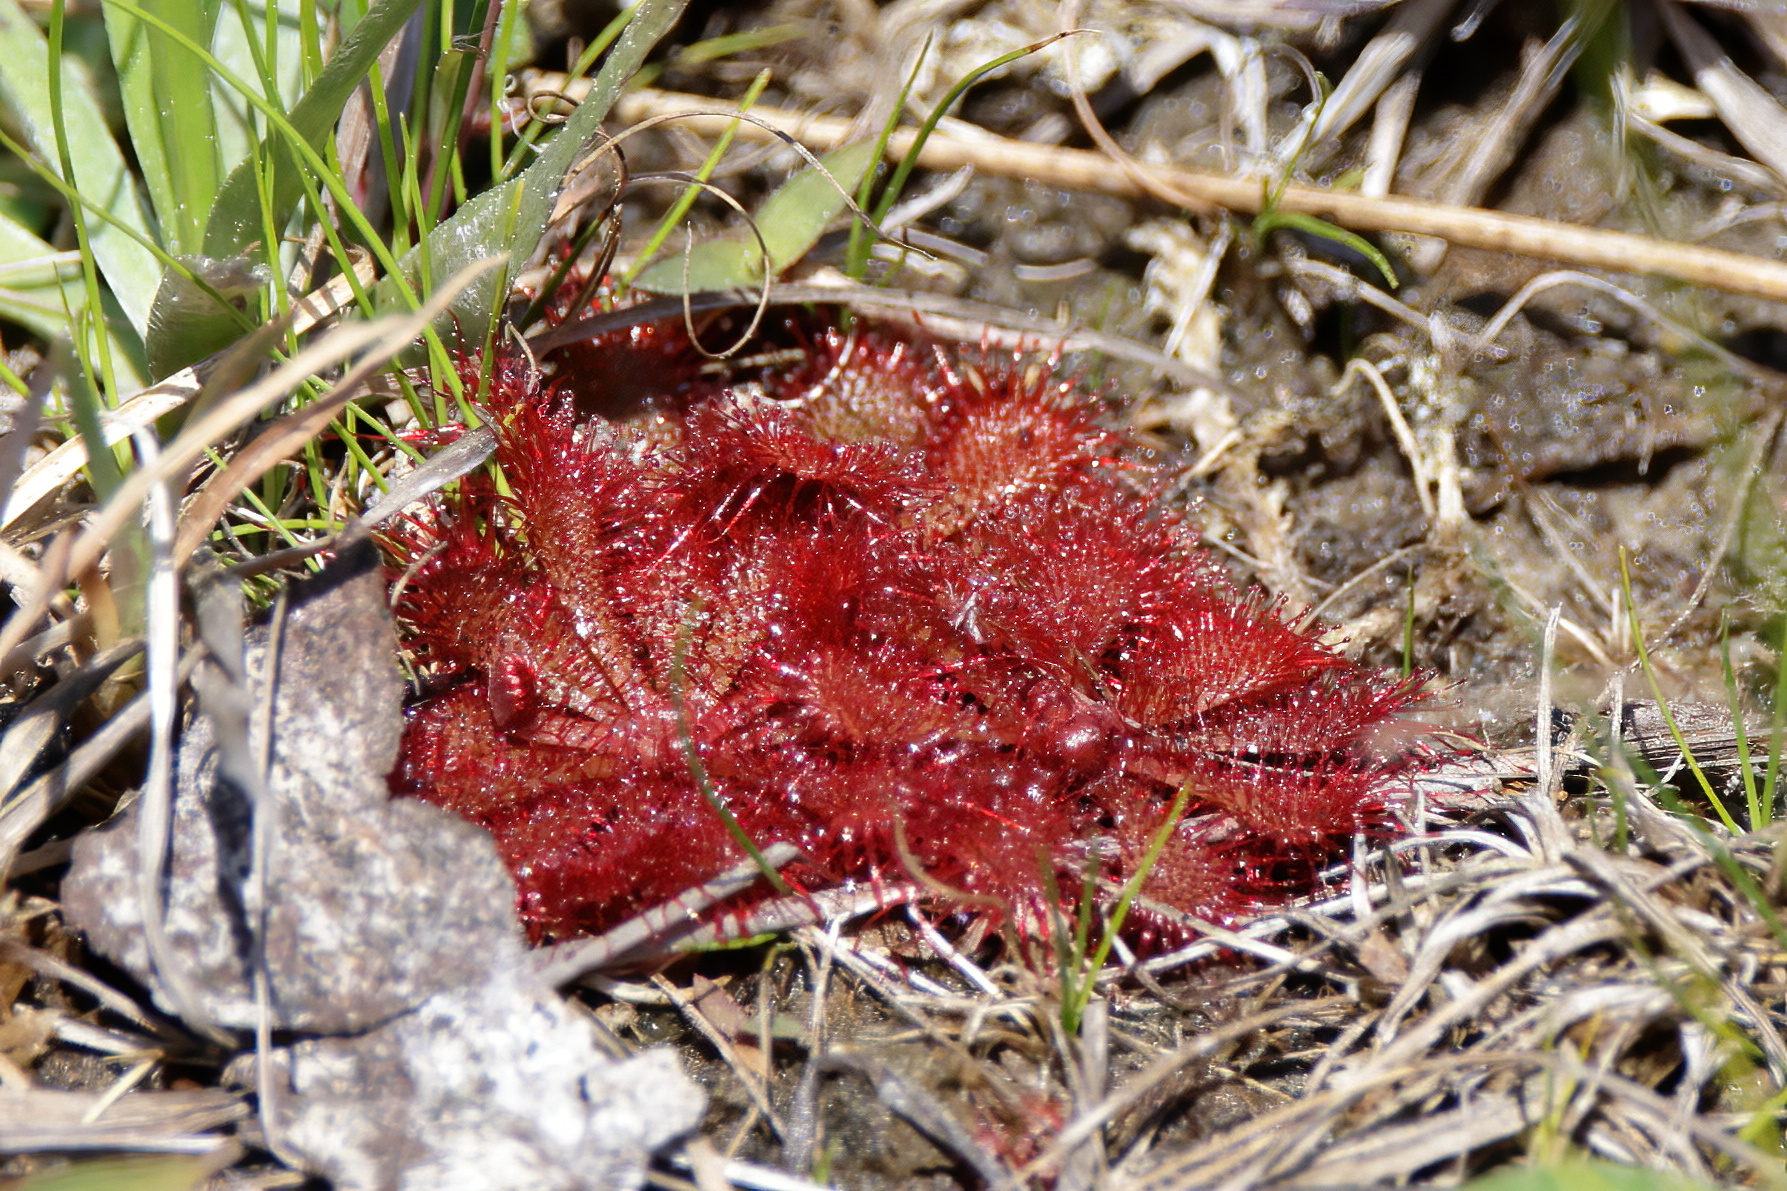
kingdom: Plantae
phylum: Tracheophyta
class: Magnoliopsida
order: Caryophyllales
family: Droseraceae
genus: Drosera
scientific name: Drosera brevifolia
